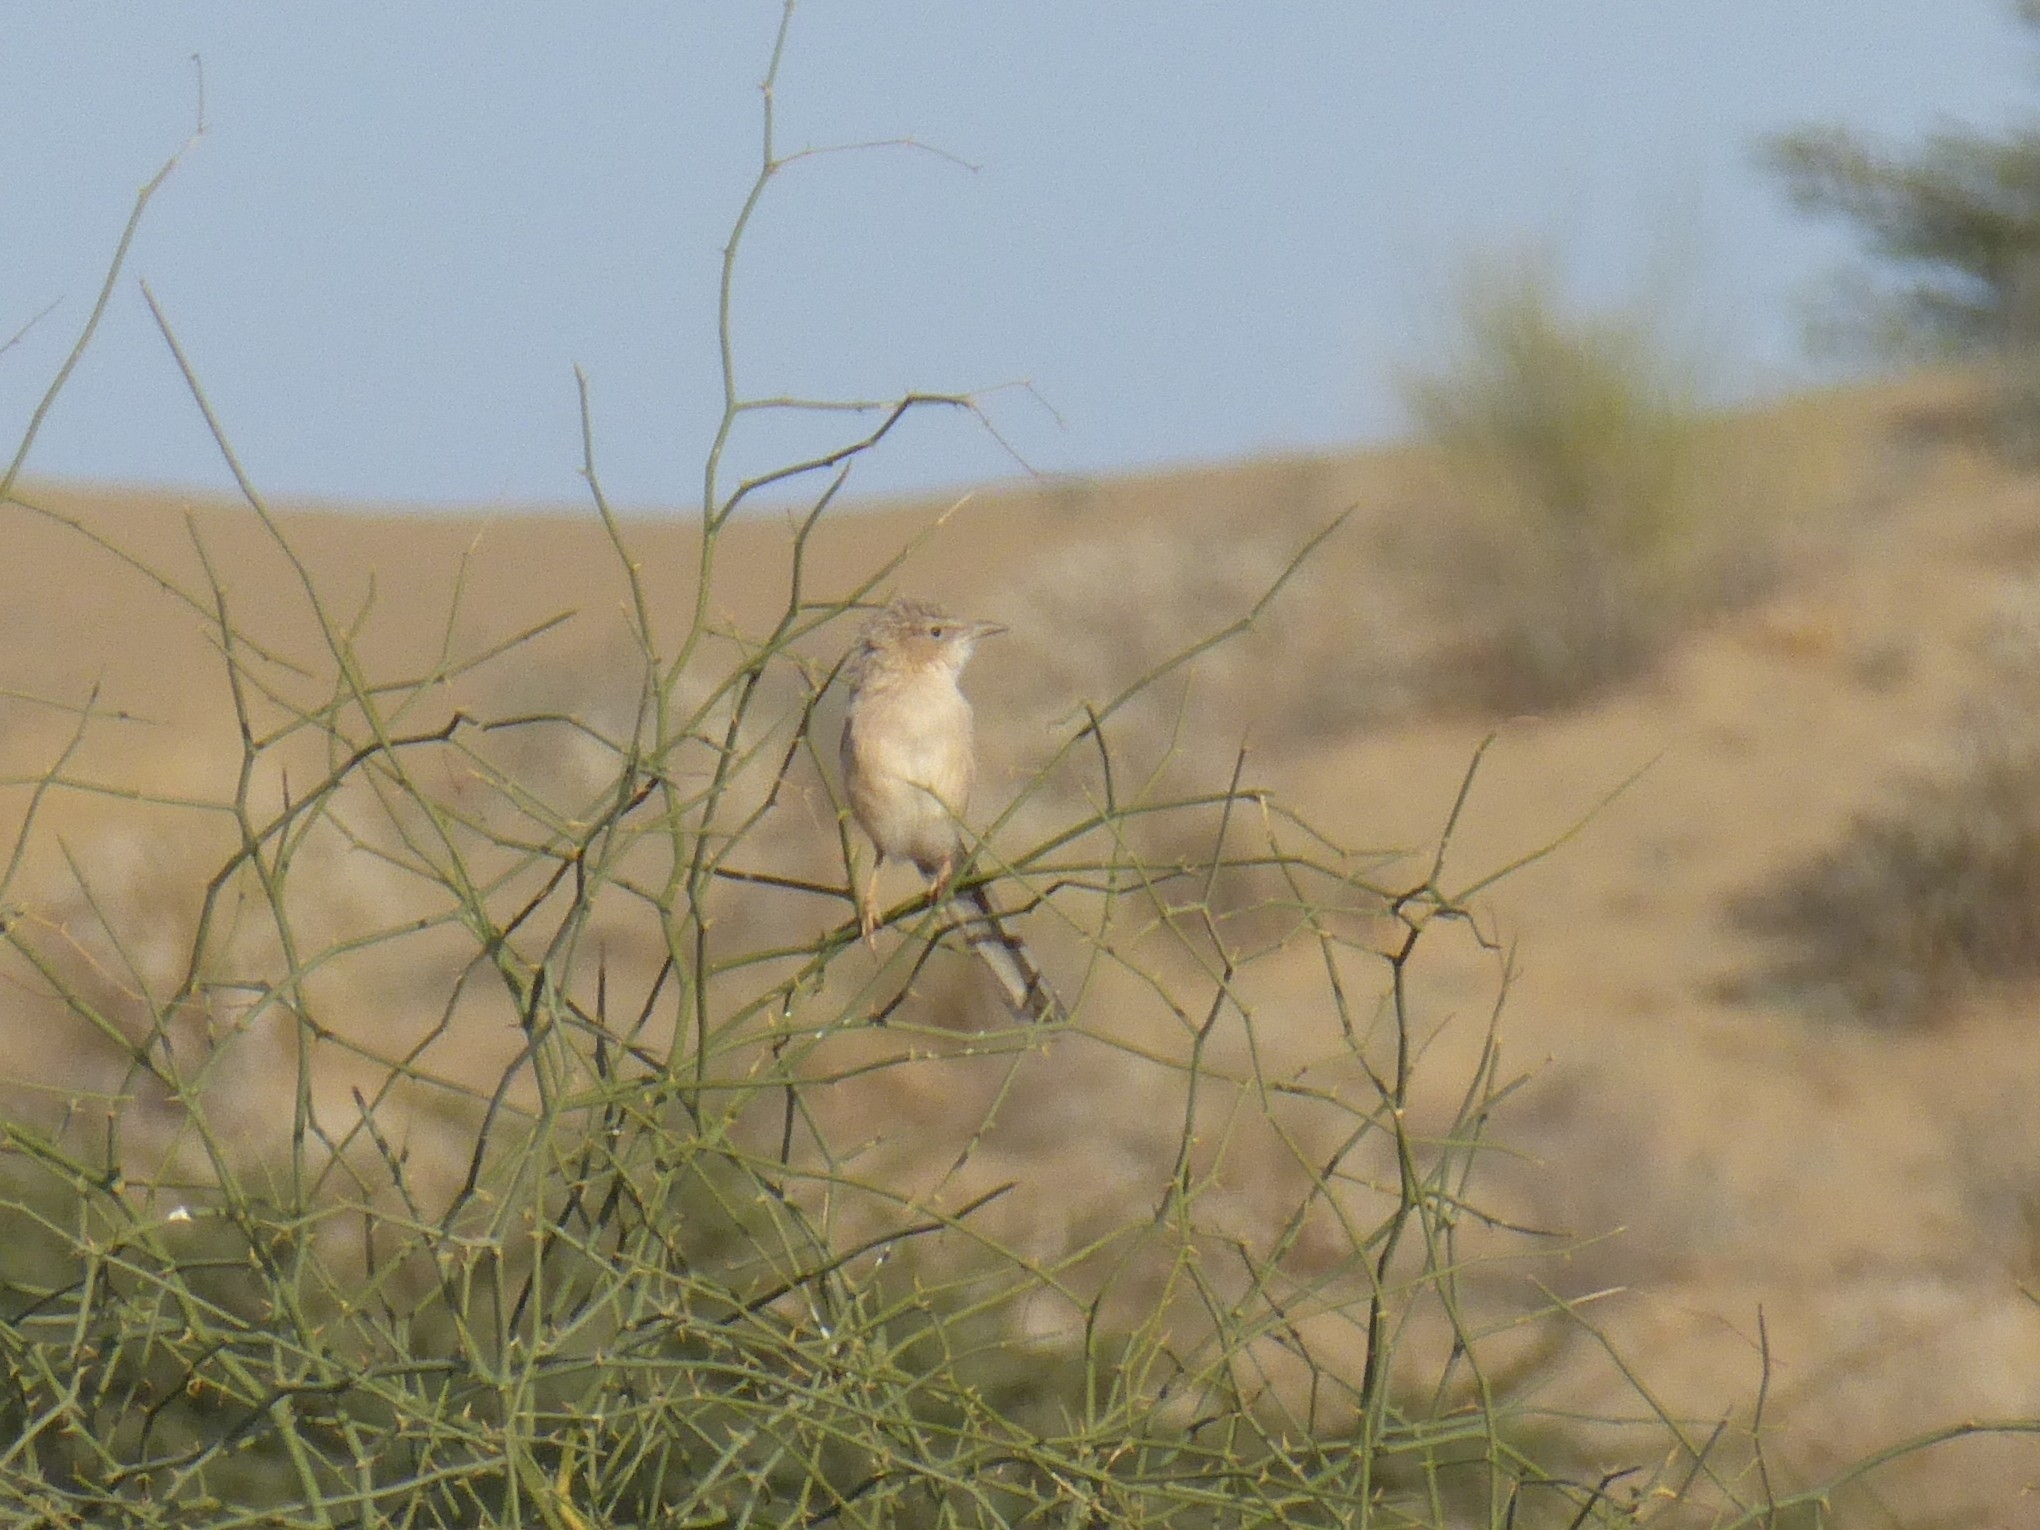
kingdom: Animalia
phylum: Chordata
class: Aves
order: Passeriformes
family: Leiothrichidae
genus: Turdoides
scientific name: Turdoides caudata
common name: Common babbler
